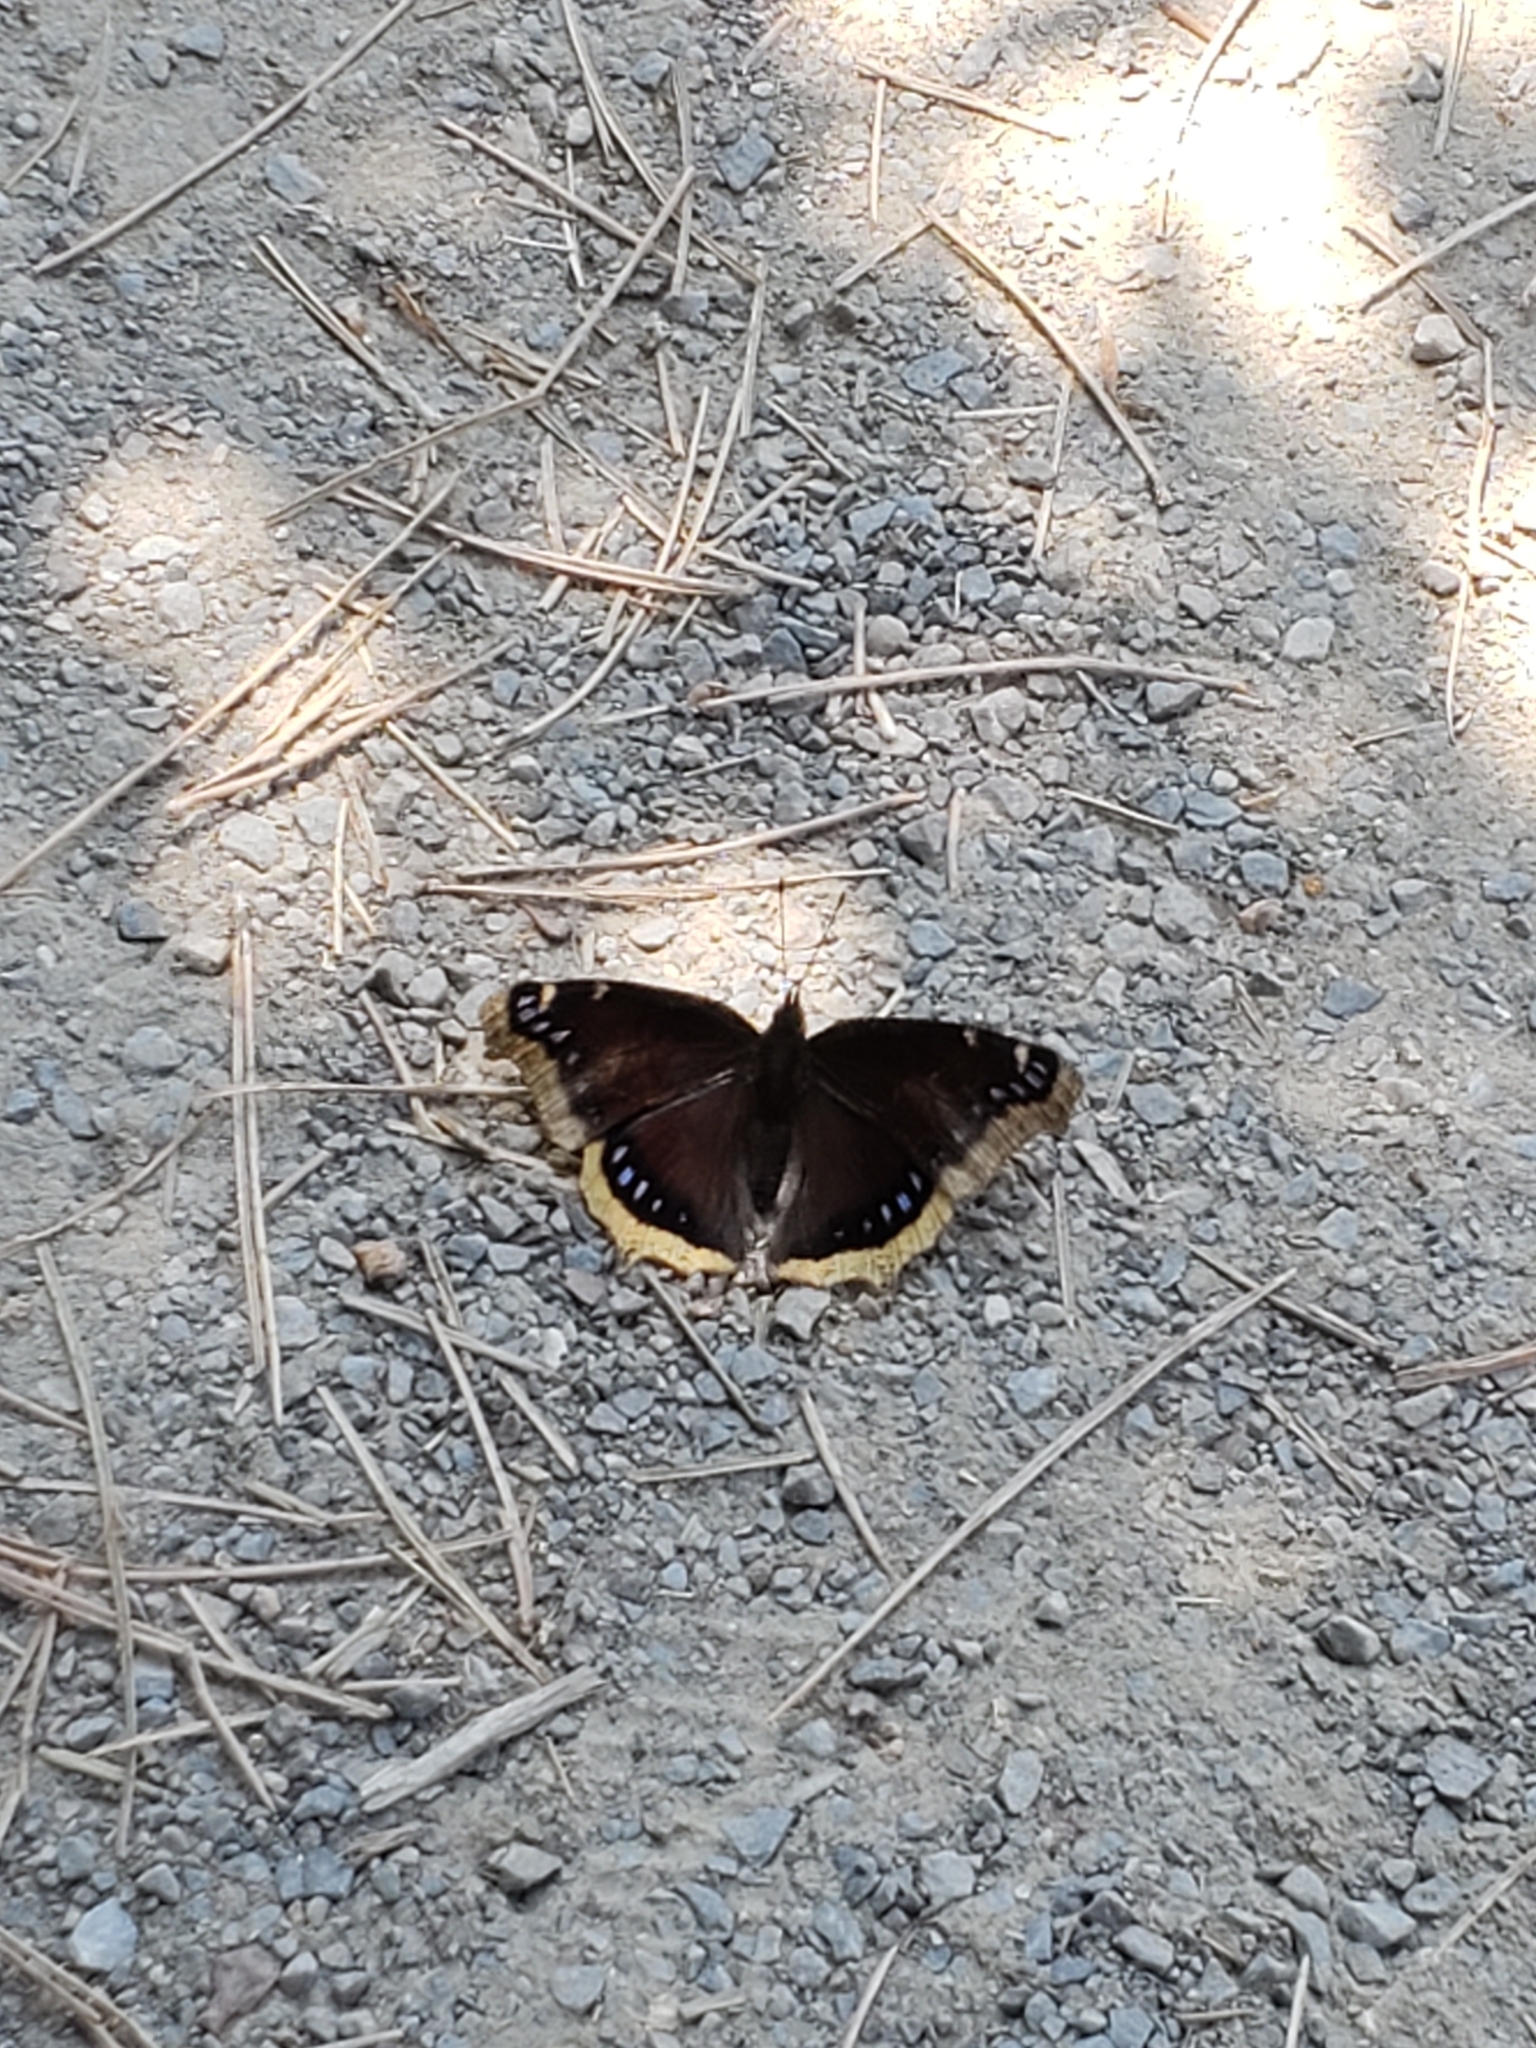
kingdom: Animalia
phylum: Arthropoda
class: Insecta
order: Lepidoptera
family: Nymphalidae
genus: Nymphalis
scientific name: Nymphalis antiopa
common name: Camberwell beauty
